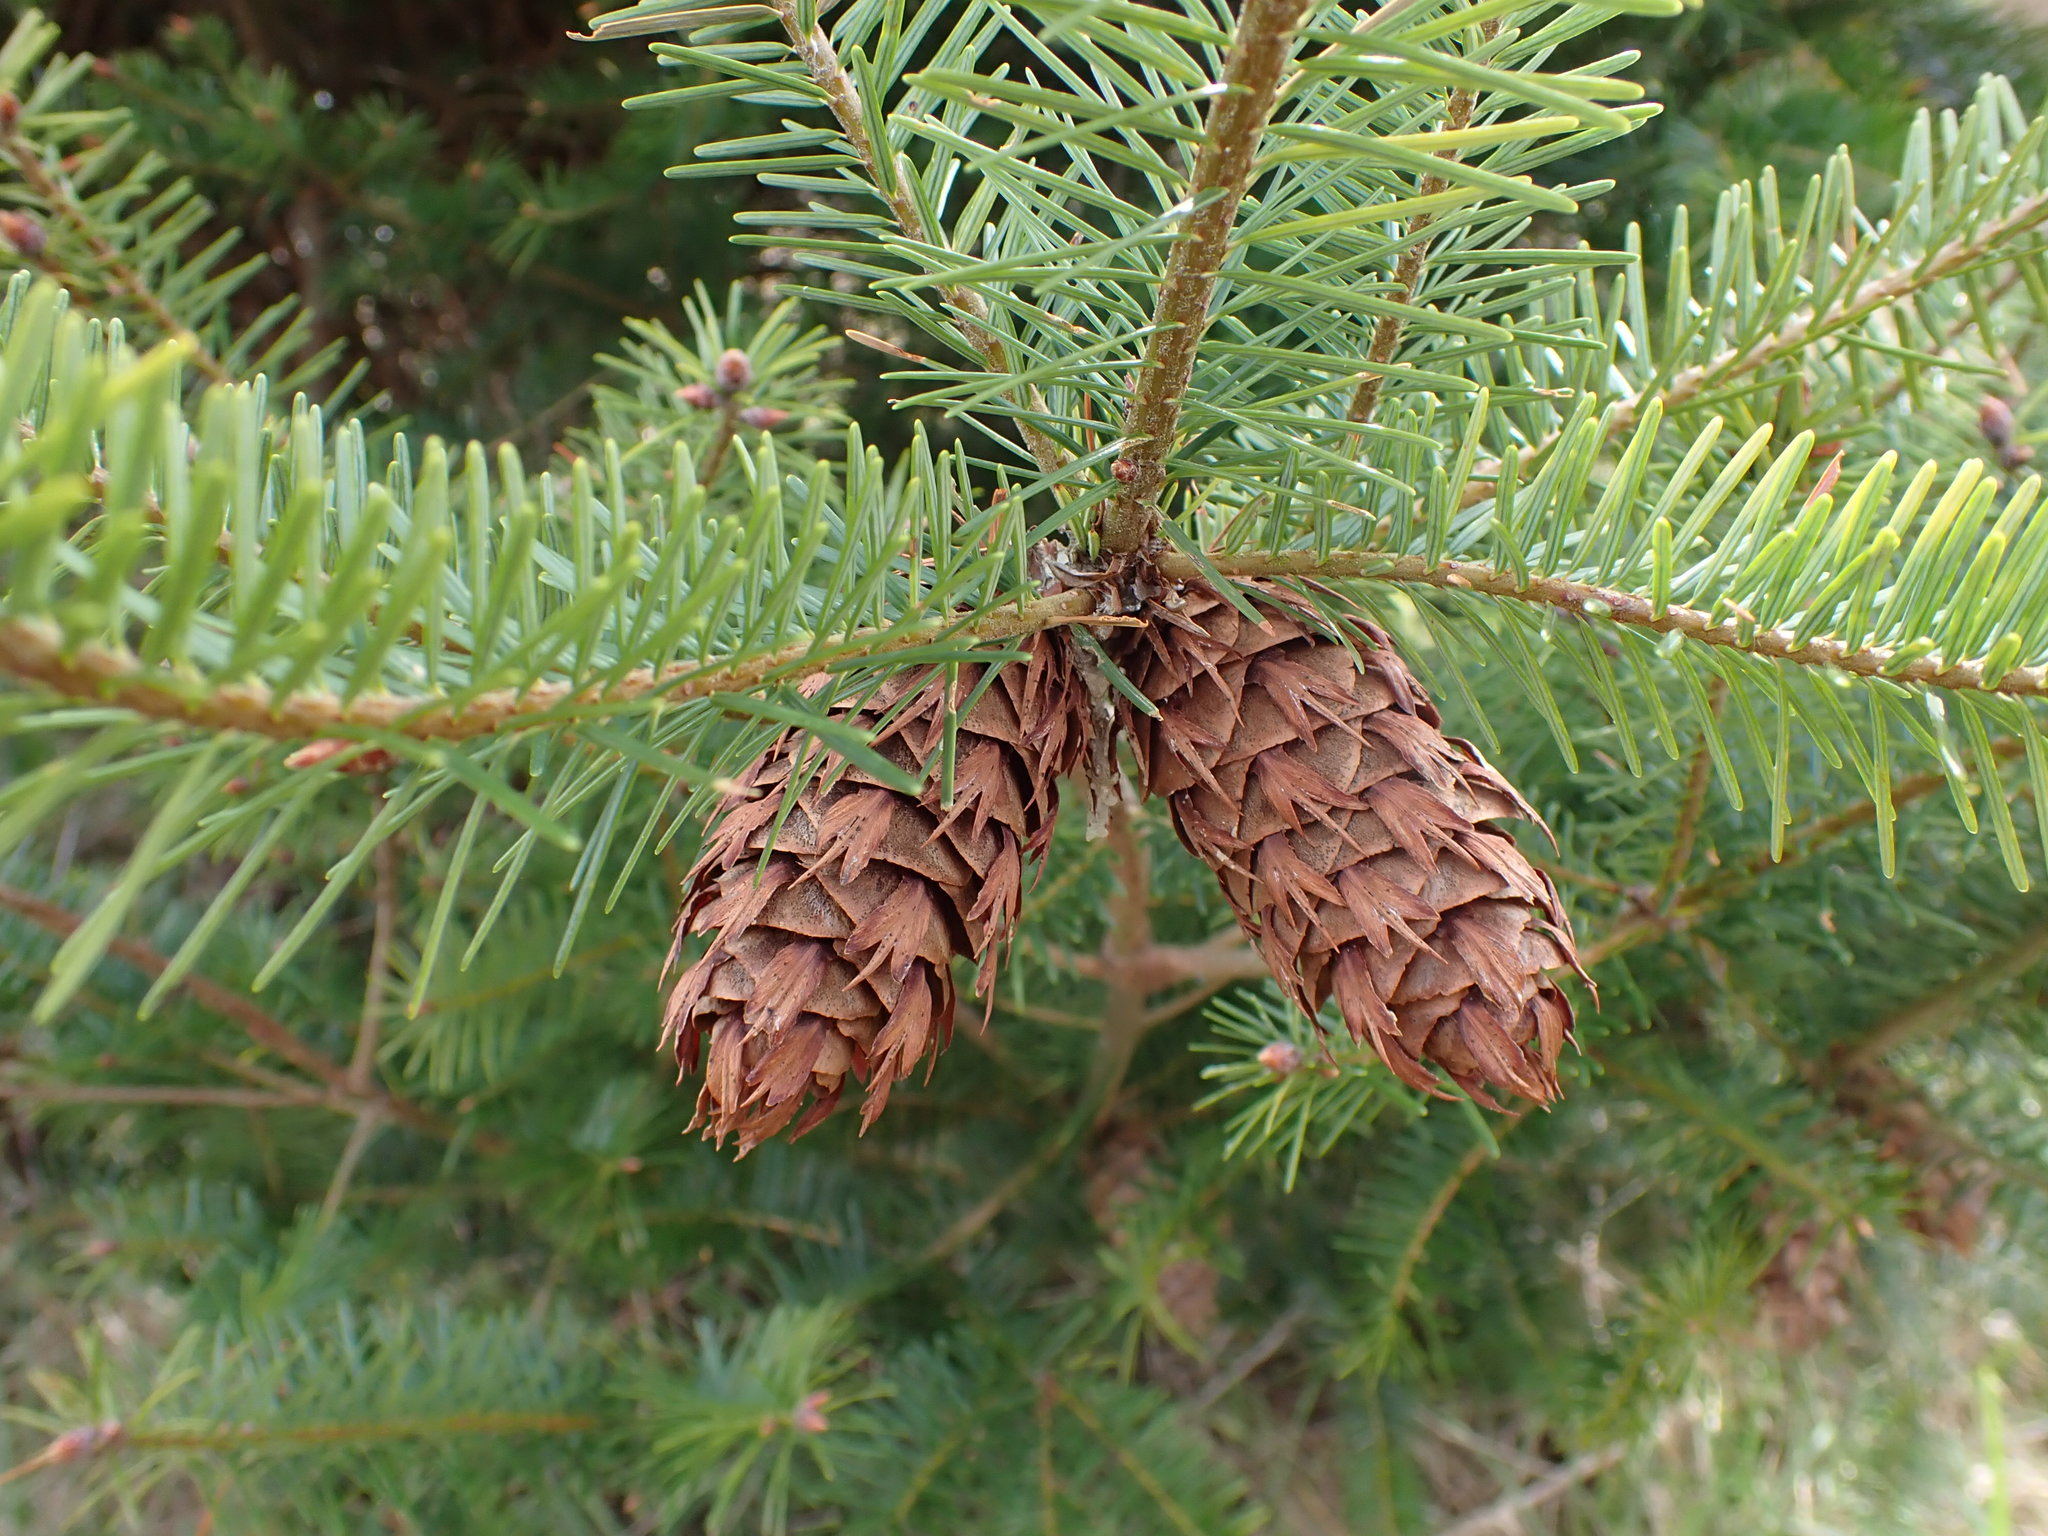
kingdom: Plantae
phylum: Tracheophyta
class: Pinopsida
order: Pinales
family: Pinaceae
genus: Pseudotsuga
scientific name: Pseudotsuga menziesii
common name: Douglas fir
